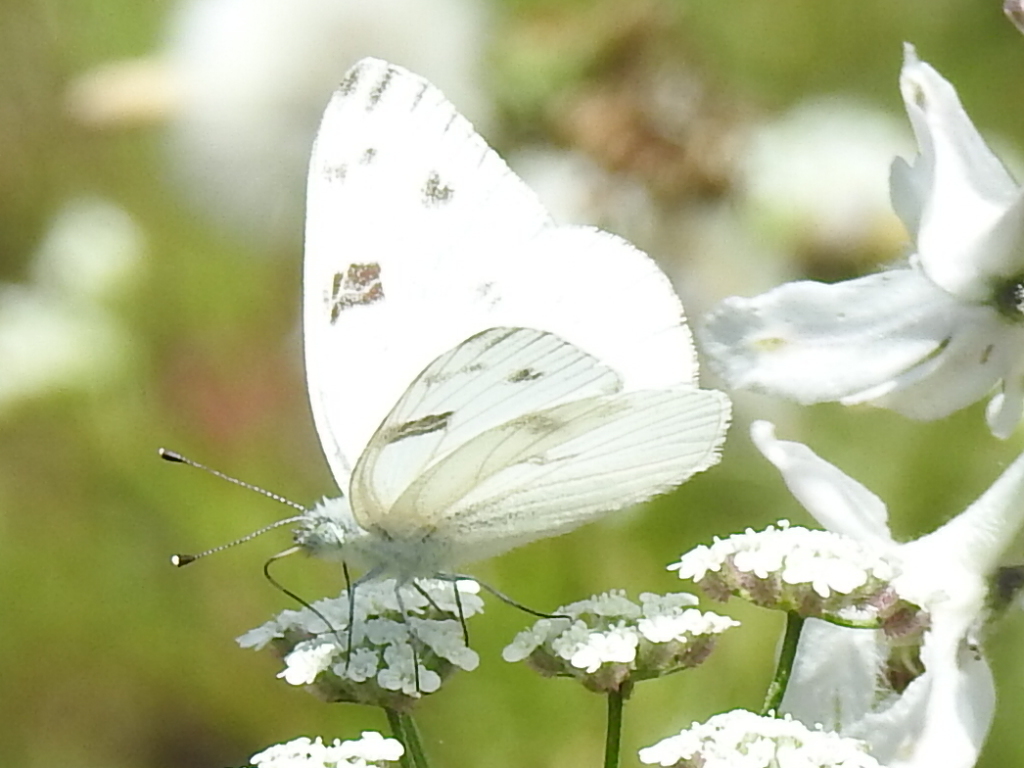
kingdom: Animalia
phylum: Arthropoda
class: Insecta
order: Lepidoptera
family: Pieridae
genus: Pontia
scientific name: Pontia protodice
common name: Checkered white
